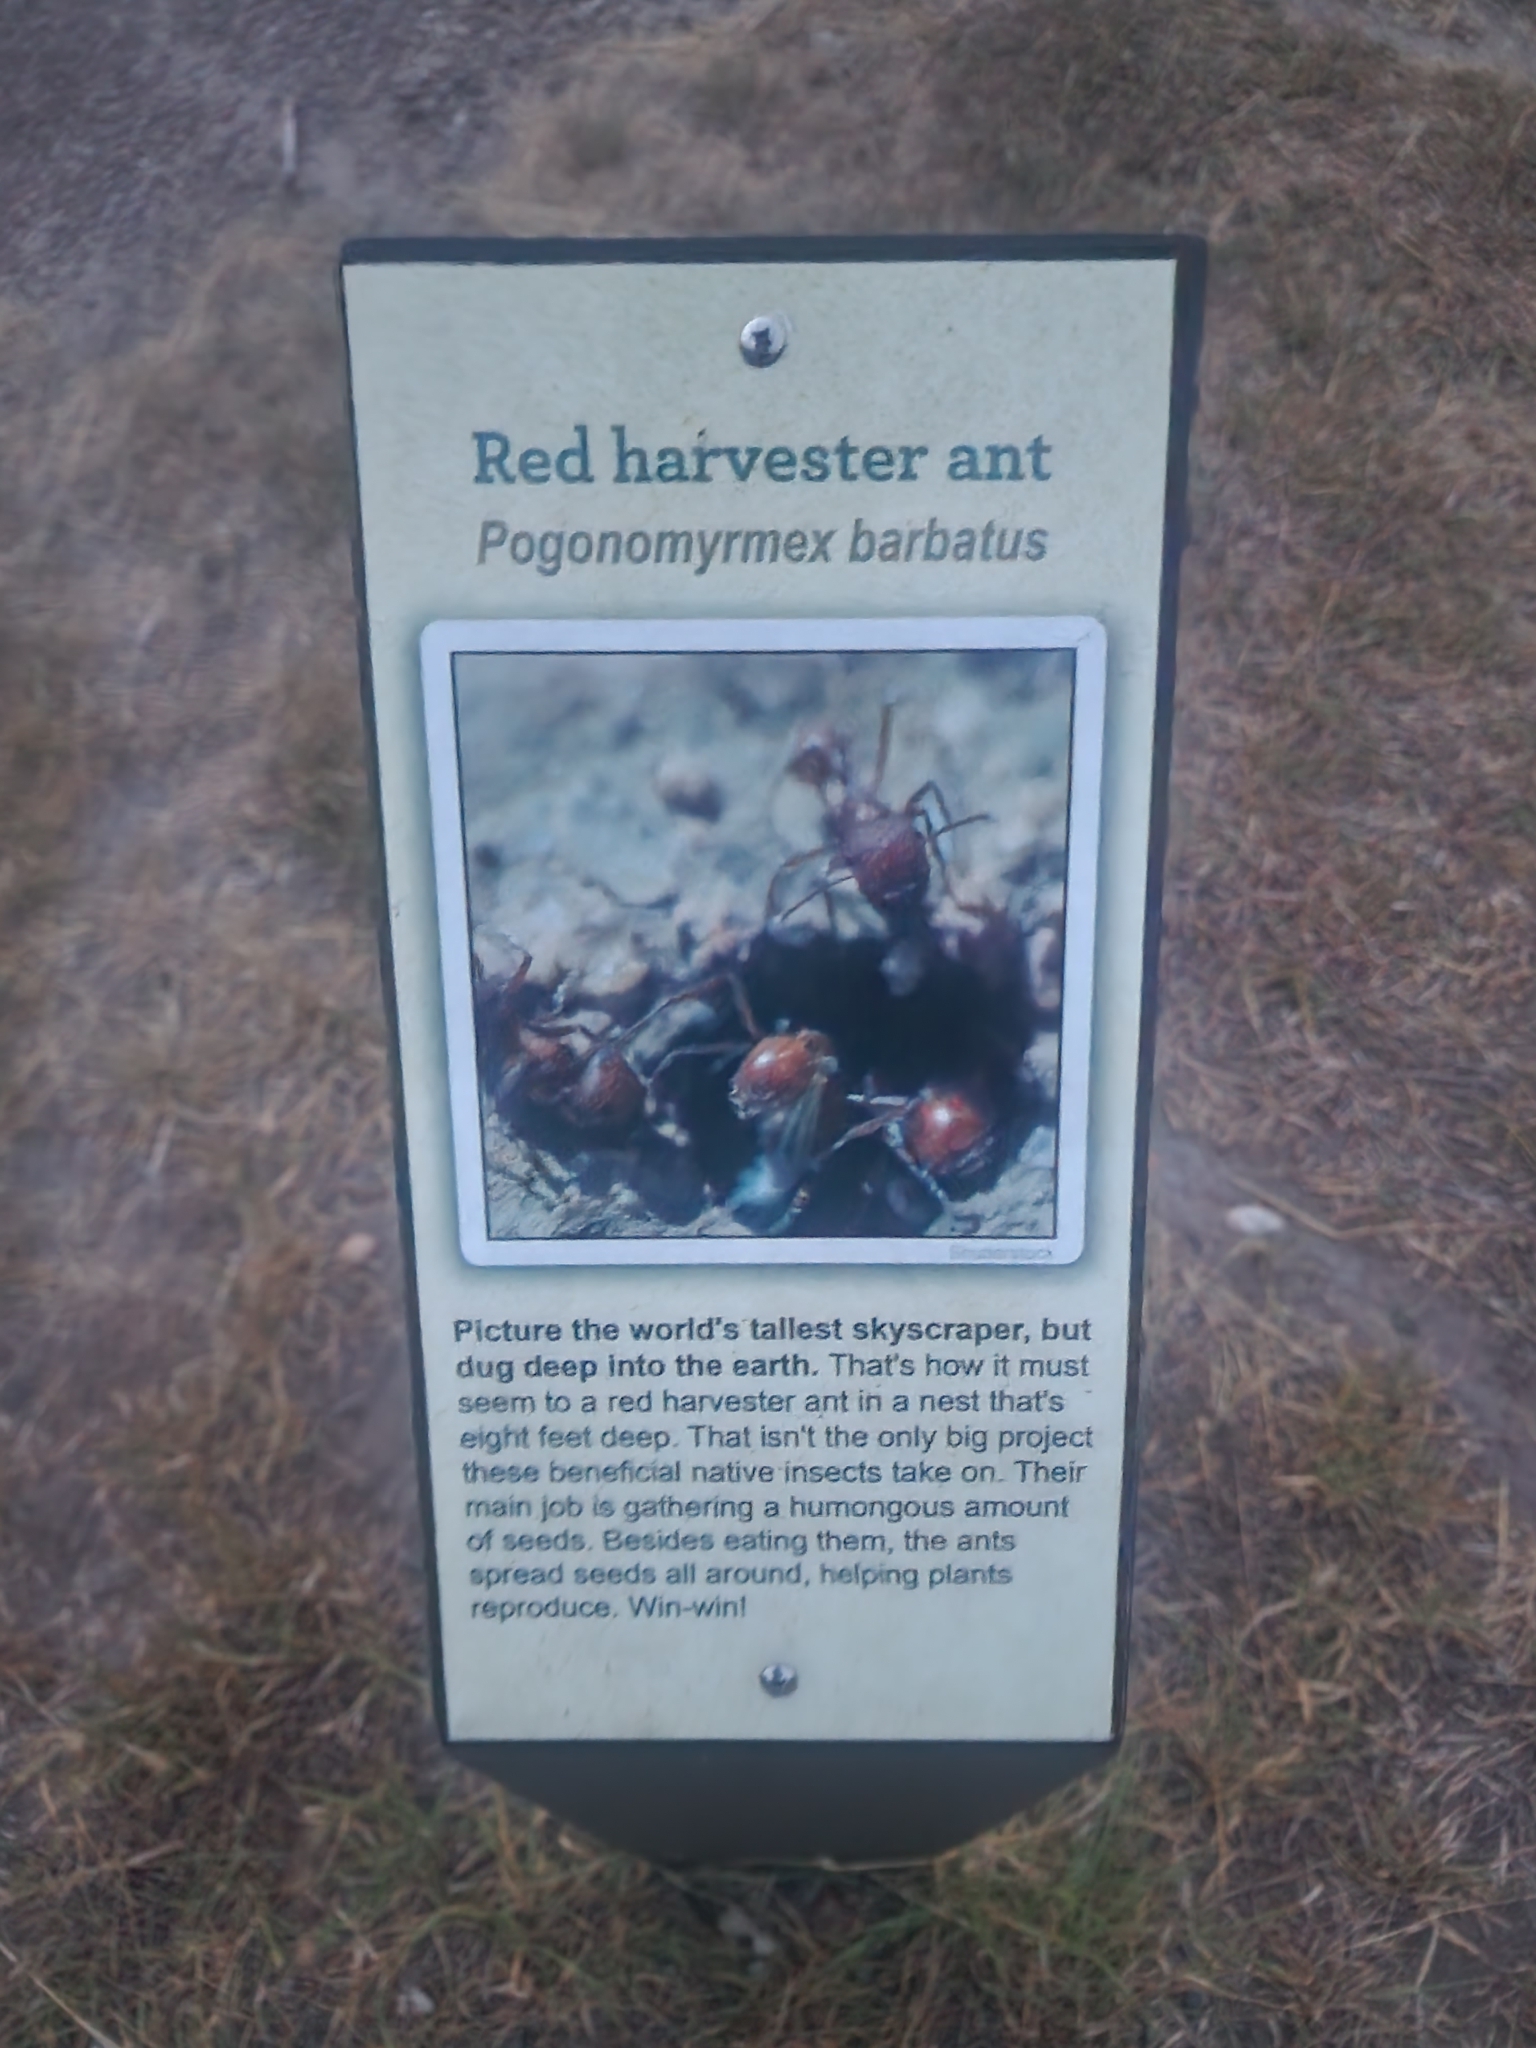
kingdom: Animalia
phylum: Arthropoda
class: Insecta
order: Hymenoptera
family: Formicidae
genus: Pogonomyrmex
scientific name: Pogonomyrmex barbatus
